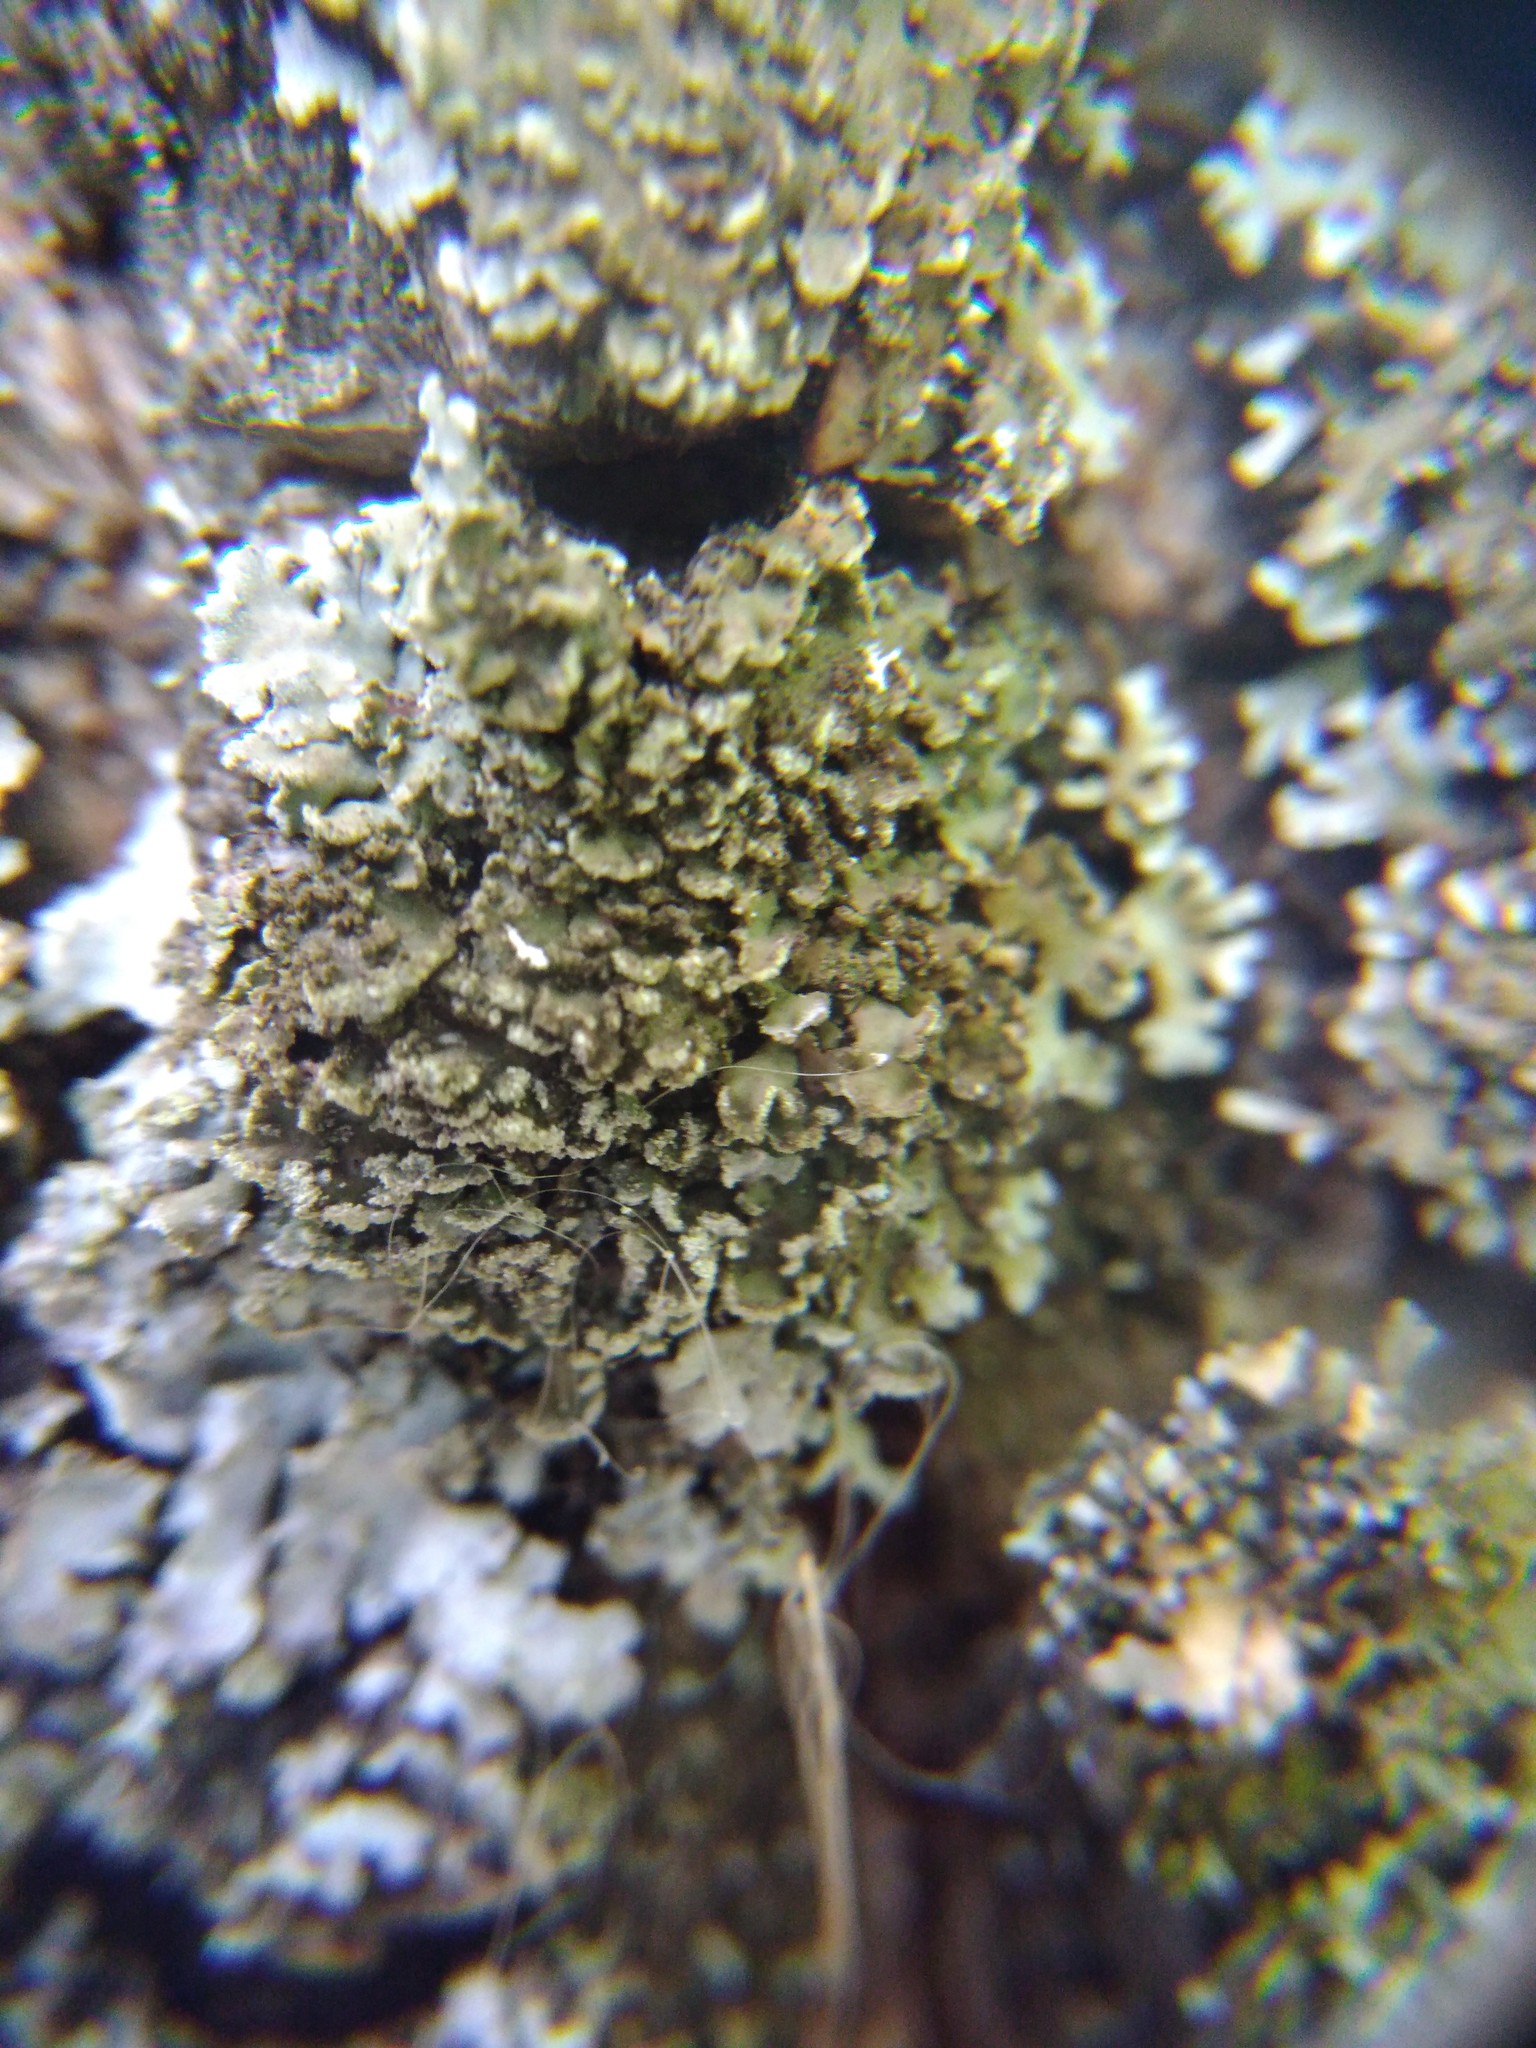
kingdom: Fungi
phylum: Ascomycota
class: Lecanoromycetes
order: Caliciales
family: Physciaceae
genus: Physconia
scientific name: Physconia perisidiosa
